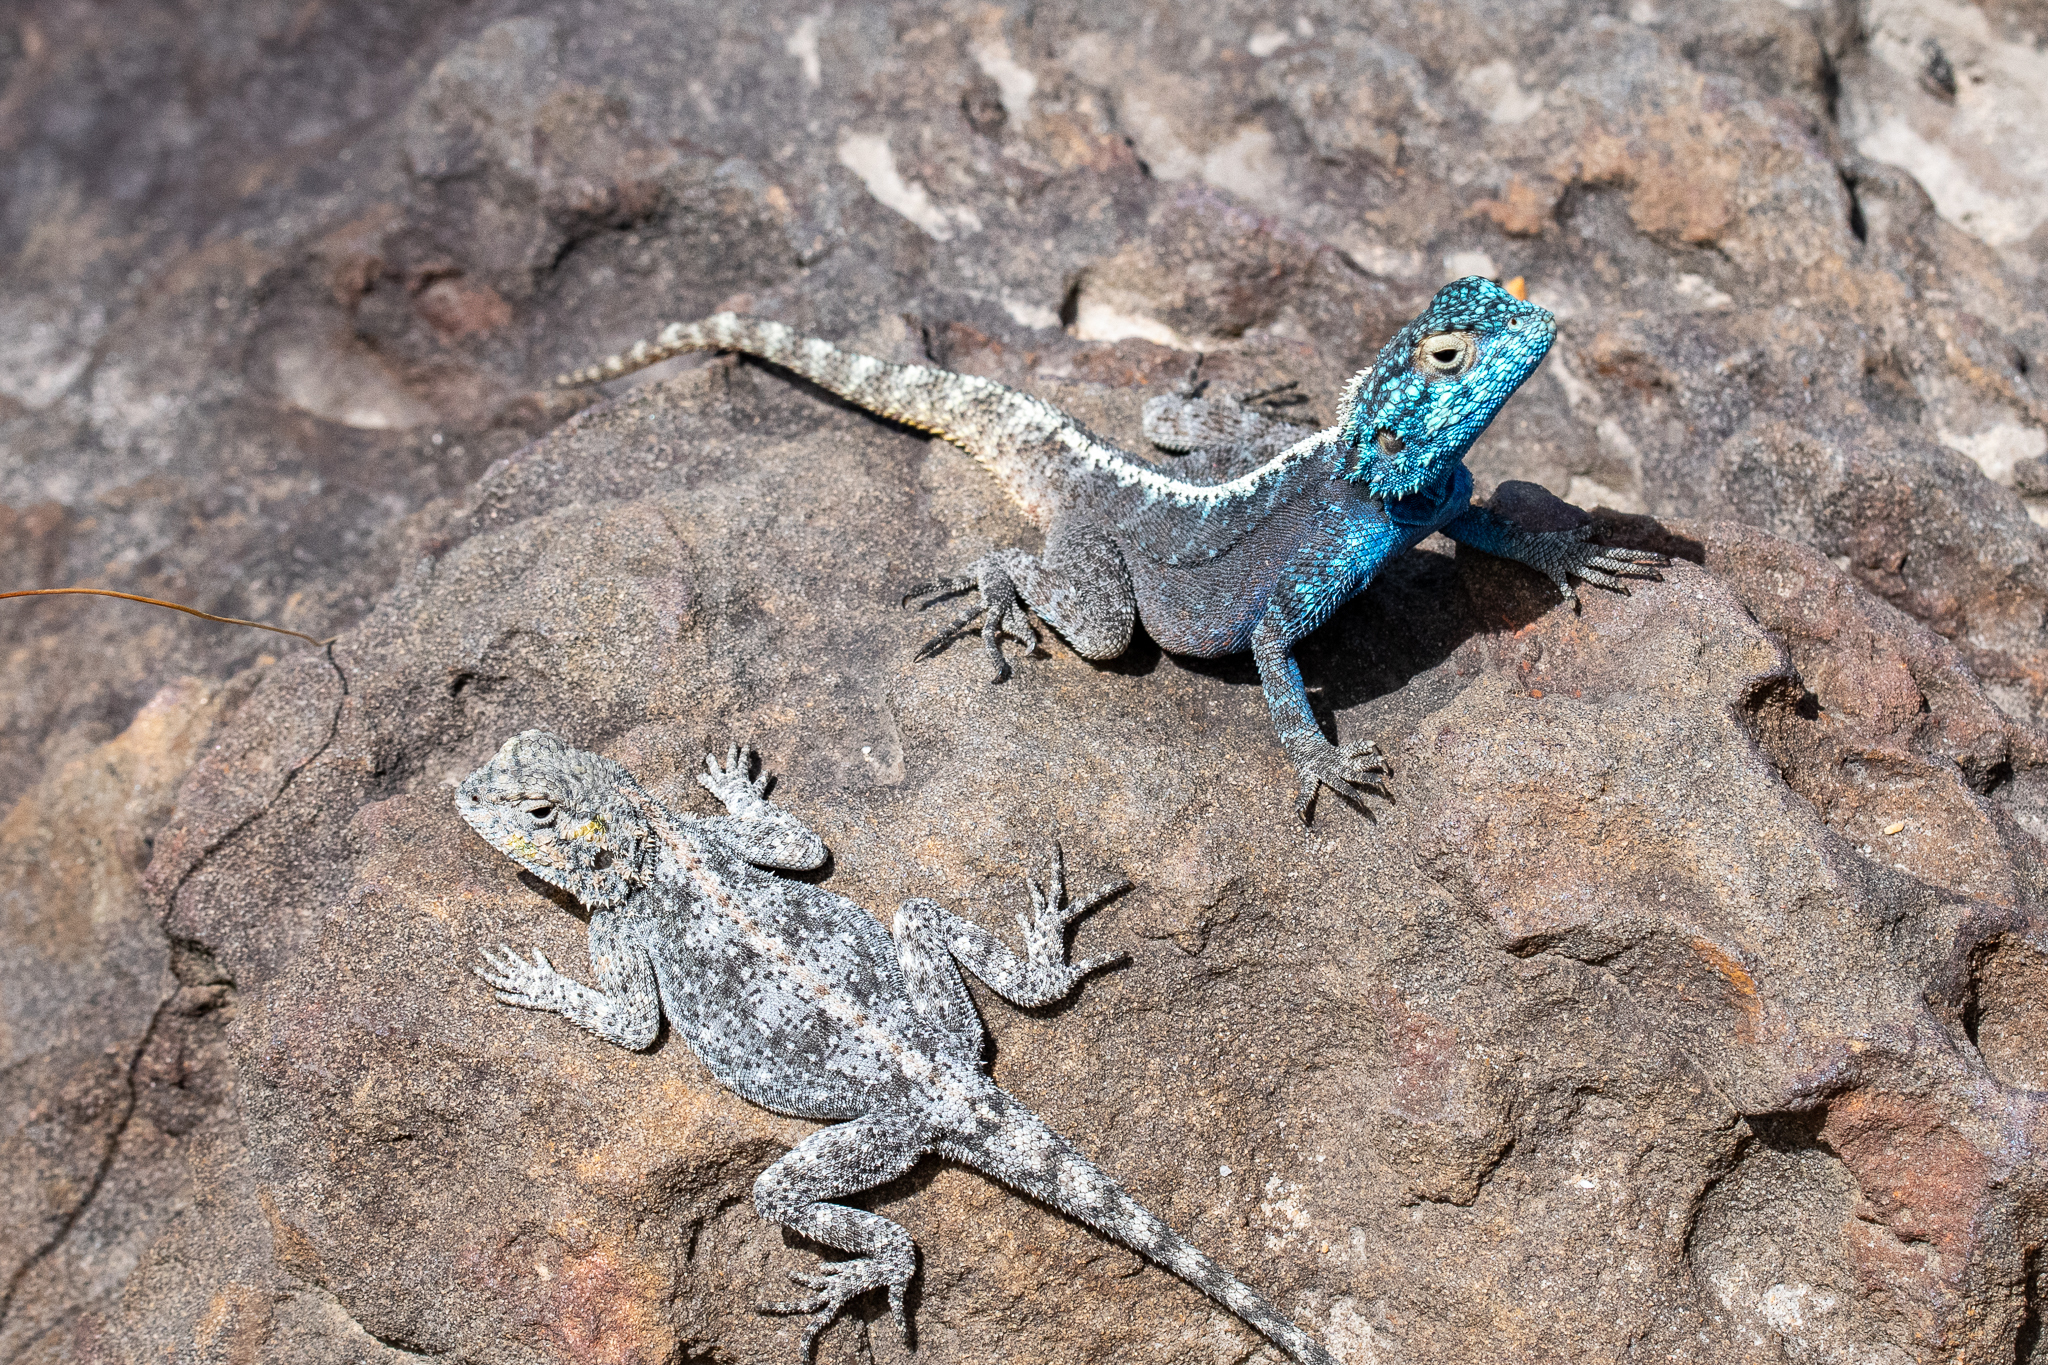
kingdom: Animalia
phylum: Chordata
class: Squamata
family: Agamidae
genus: Agama
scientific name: Agama atra
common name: Southern african rock agama
